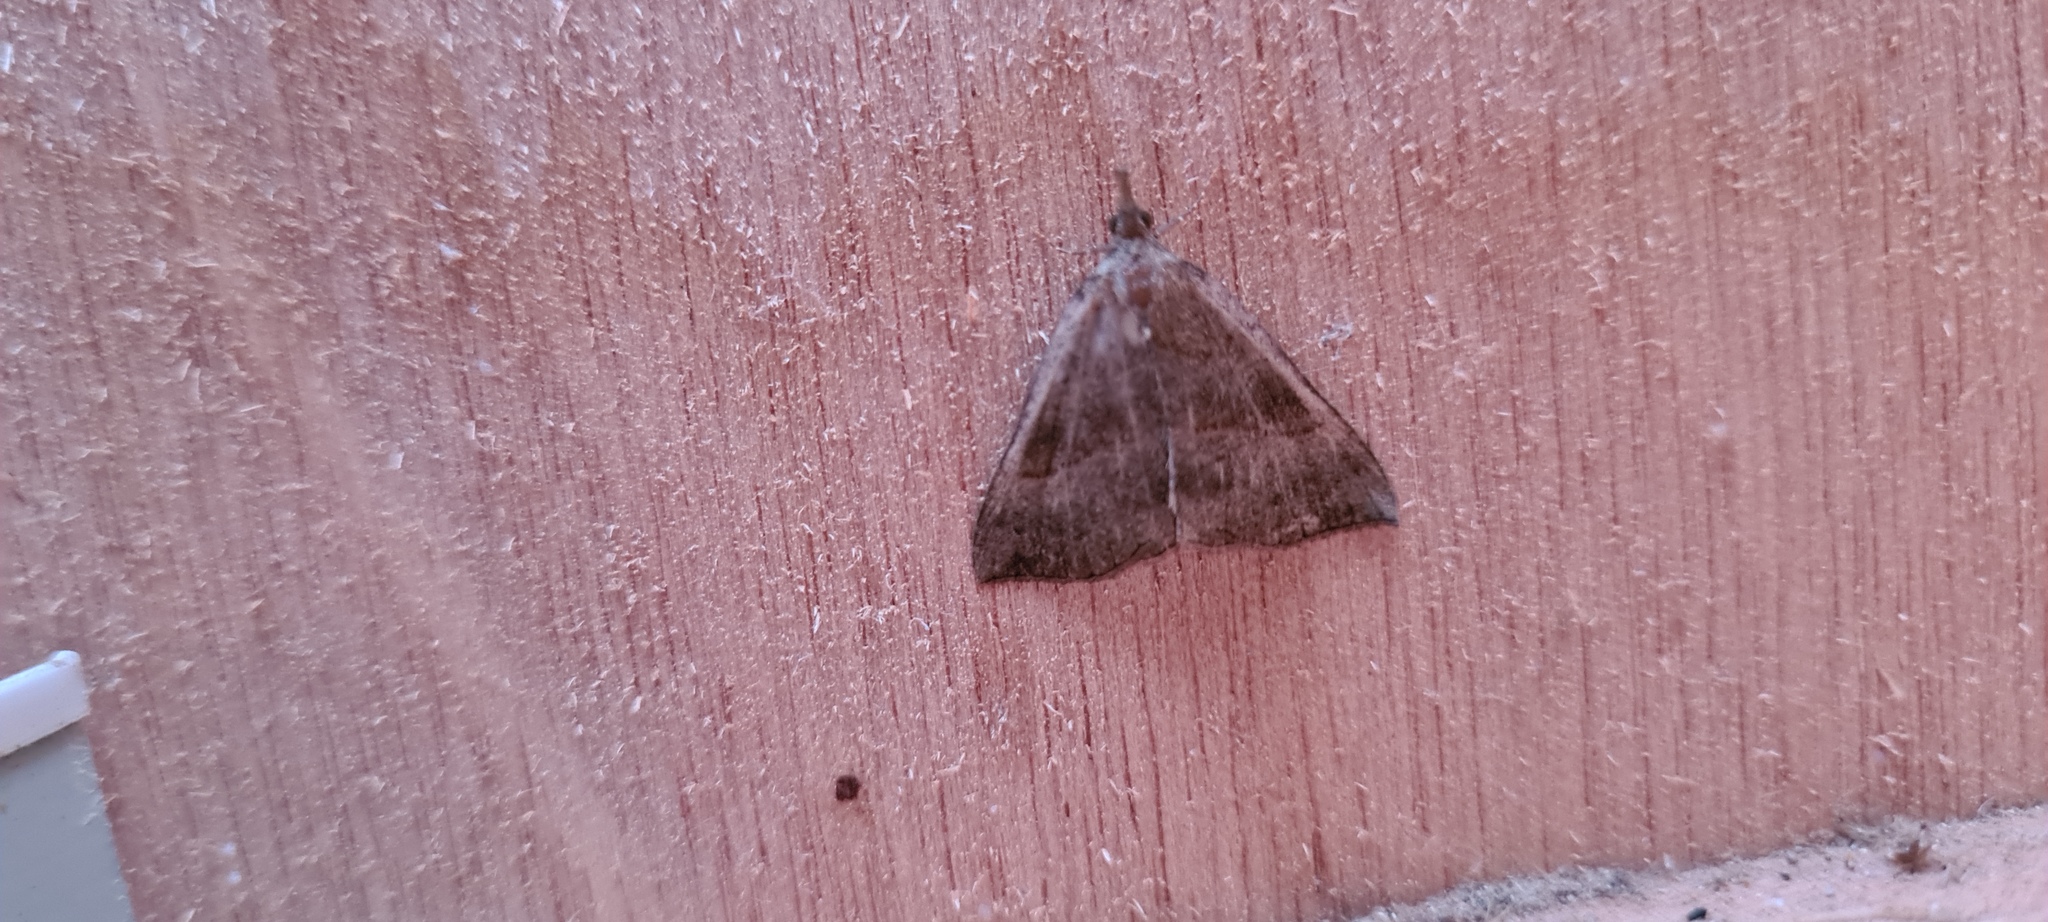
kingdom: Animalia
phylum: Arthropoda
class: Insecta
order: Lepidoptera
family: Erebidae
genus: Hypena
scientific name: Hypena proboscidalis
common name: Snout
